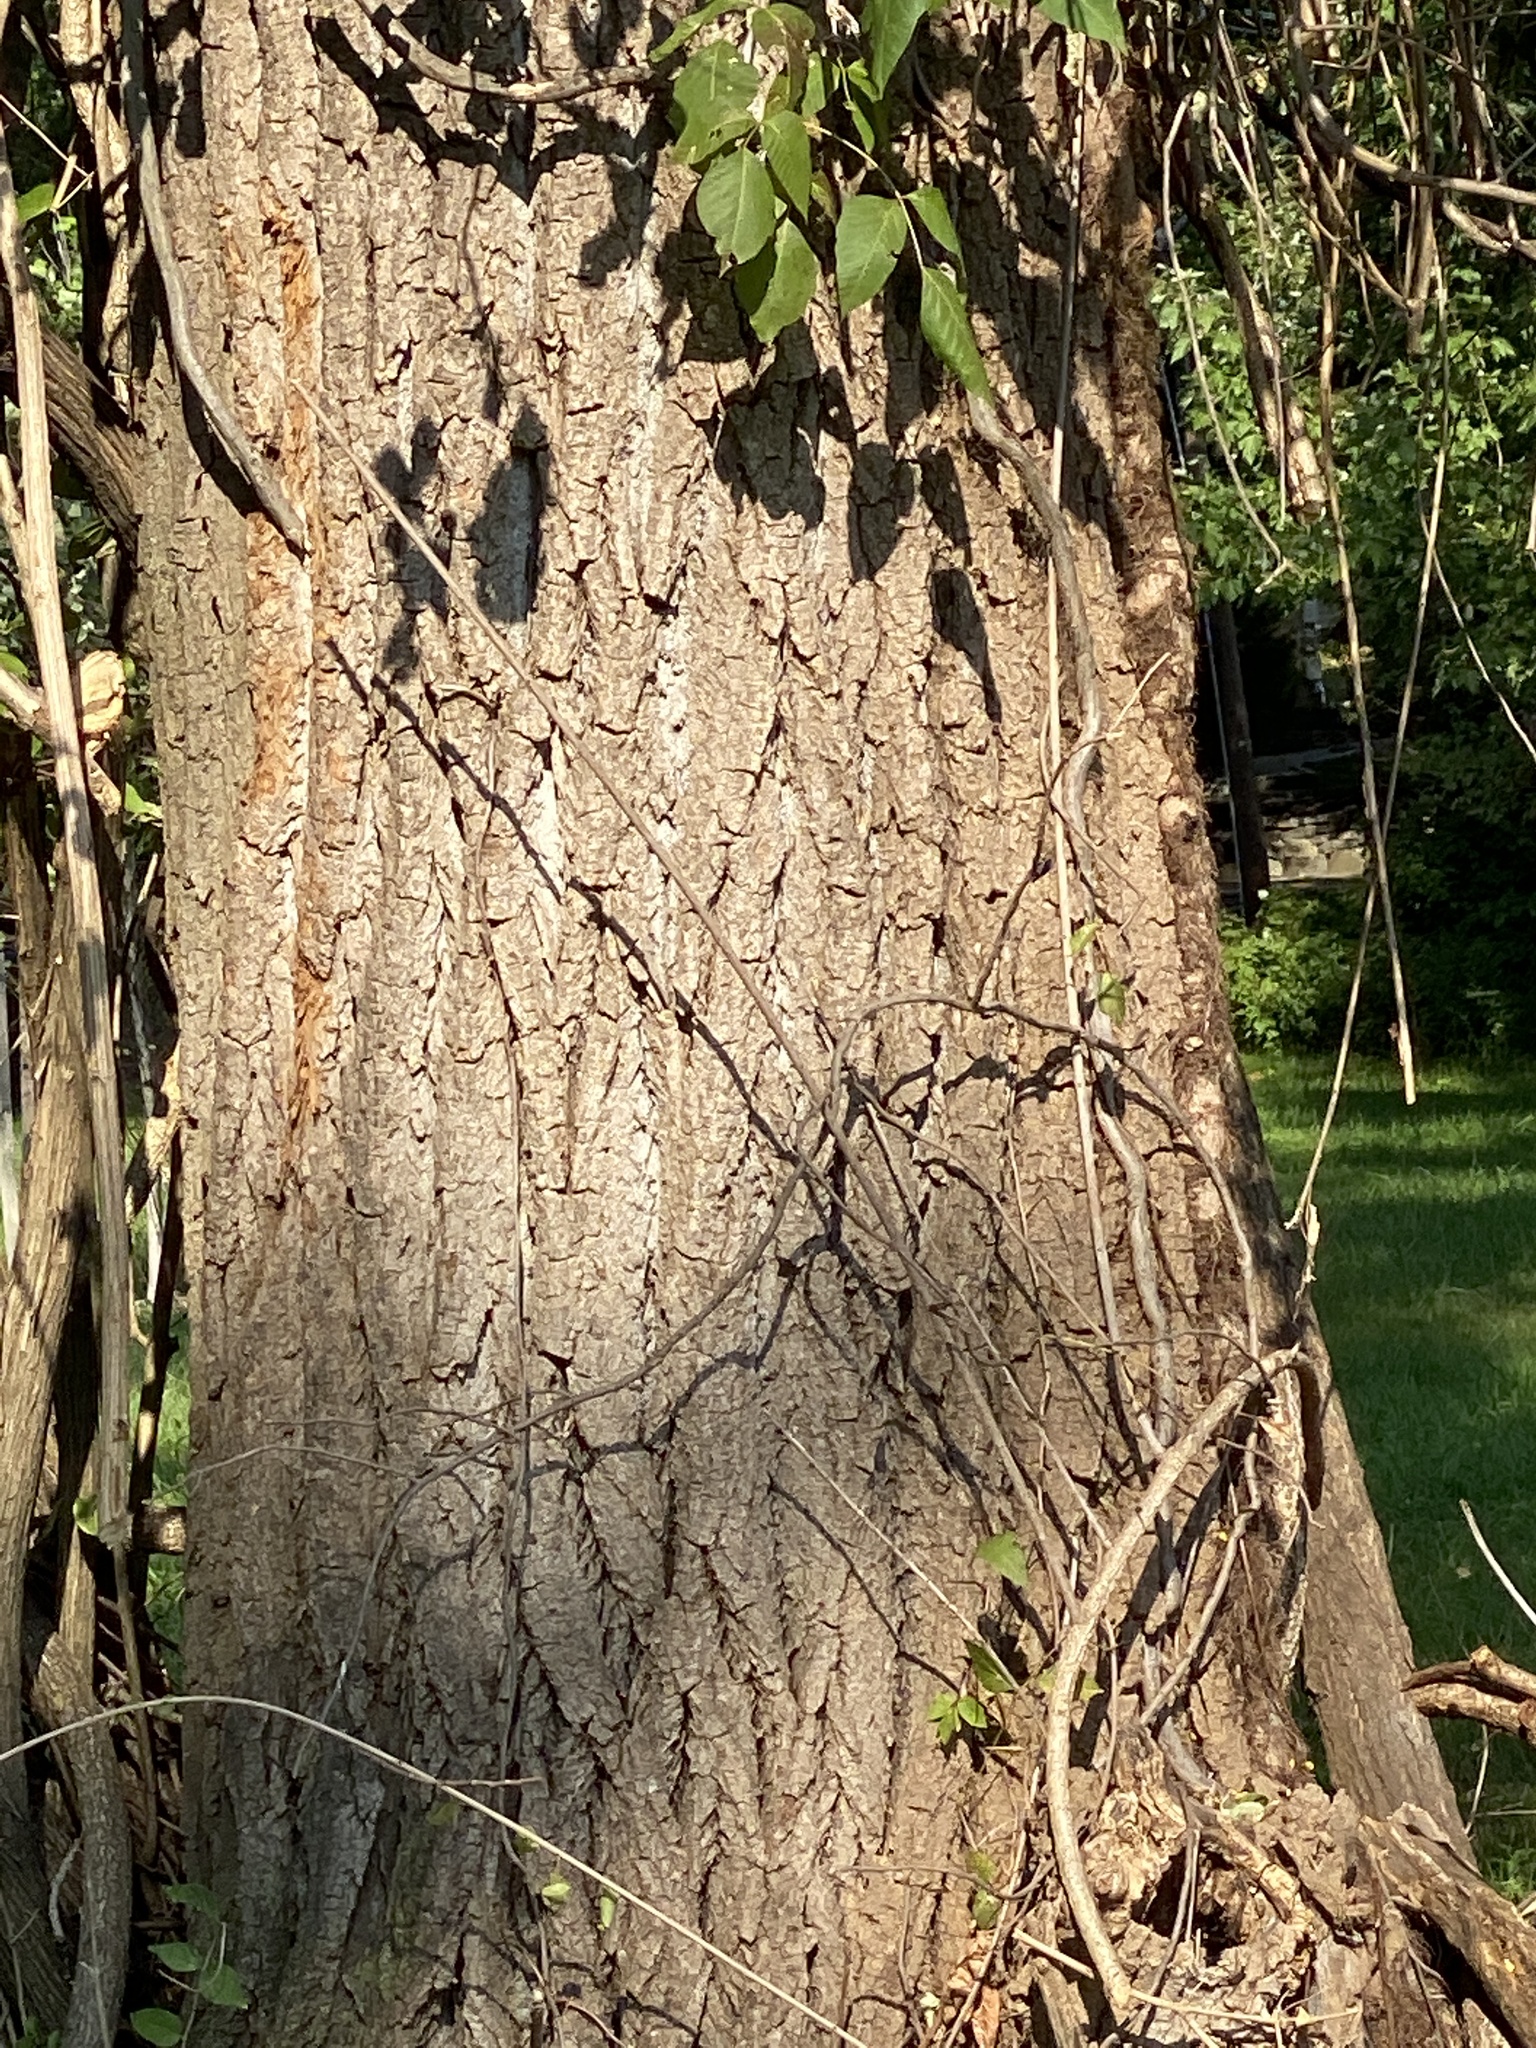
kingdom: Plantae
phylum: Tracheophyta
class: Magnoliopsida
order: Celastrales
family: Celastraceae
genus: Celastrus
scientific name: Celastrus orbiculatus
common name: Oriental bittersweet
